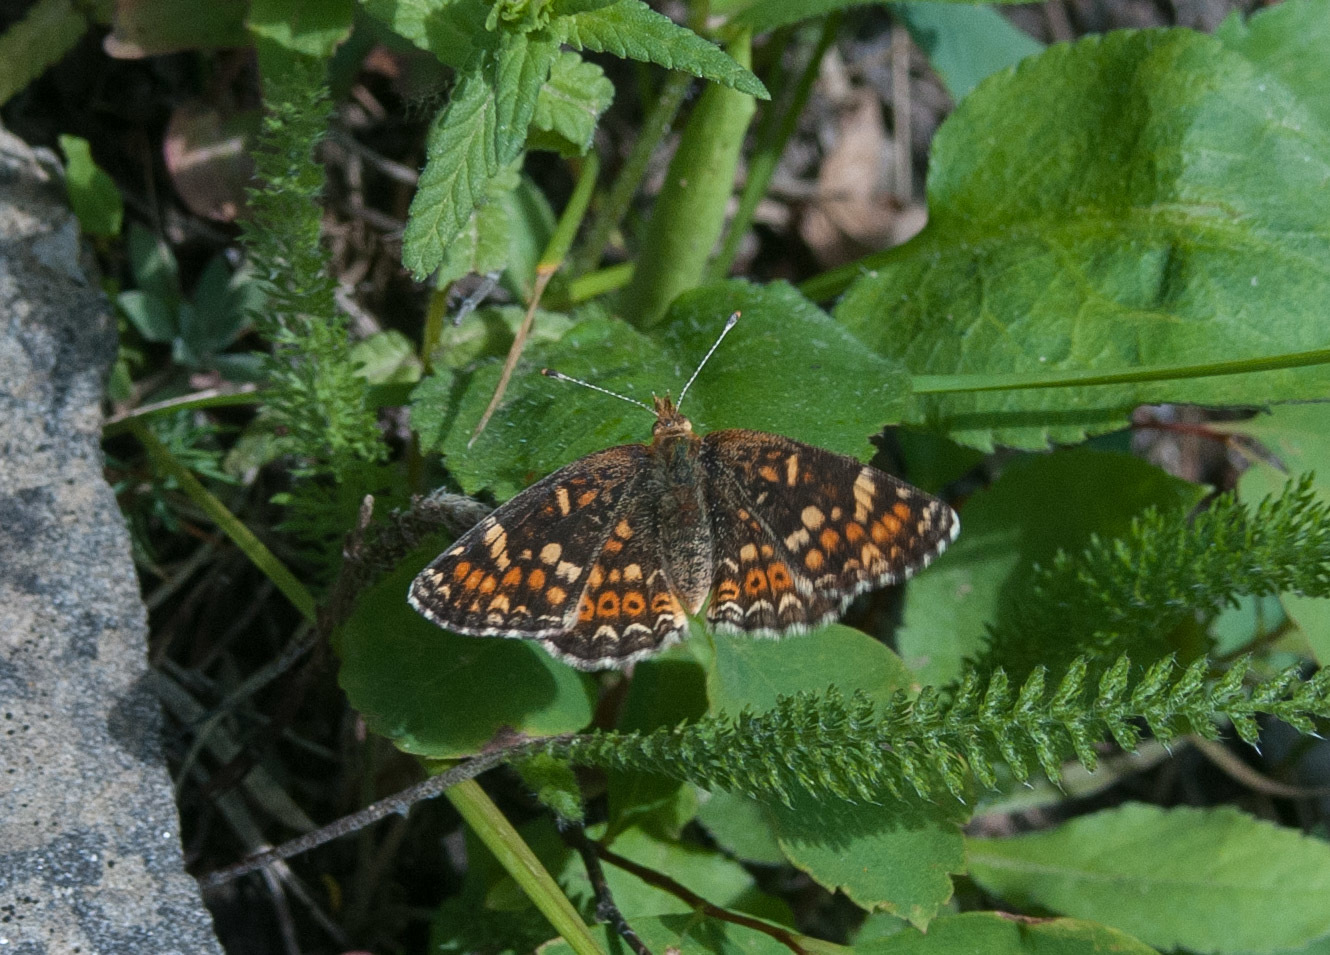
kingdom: Animalia
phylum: Arthropoda
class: Insecta
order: Lepidoptera
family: Nymphalidae
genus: Phyciodes
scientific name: Phyciodes tharos
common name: Pearl crescent
